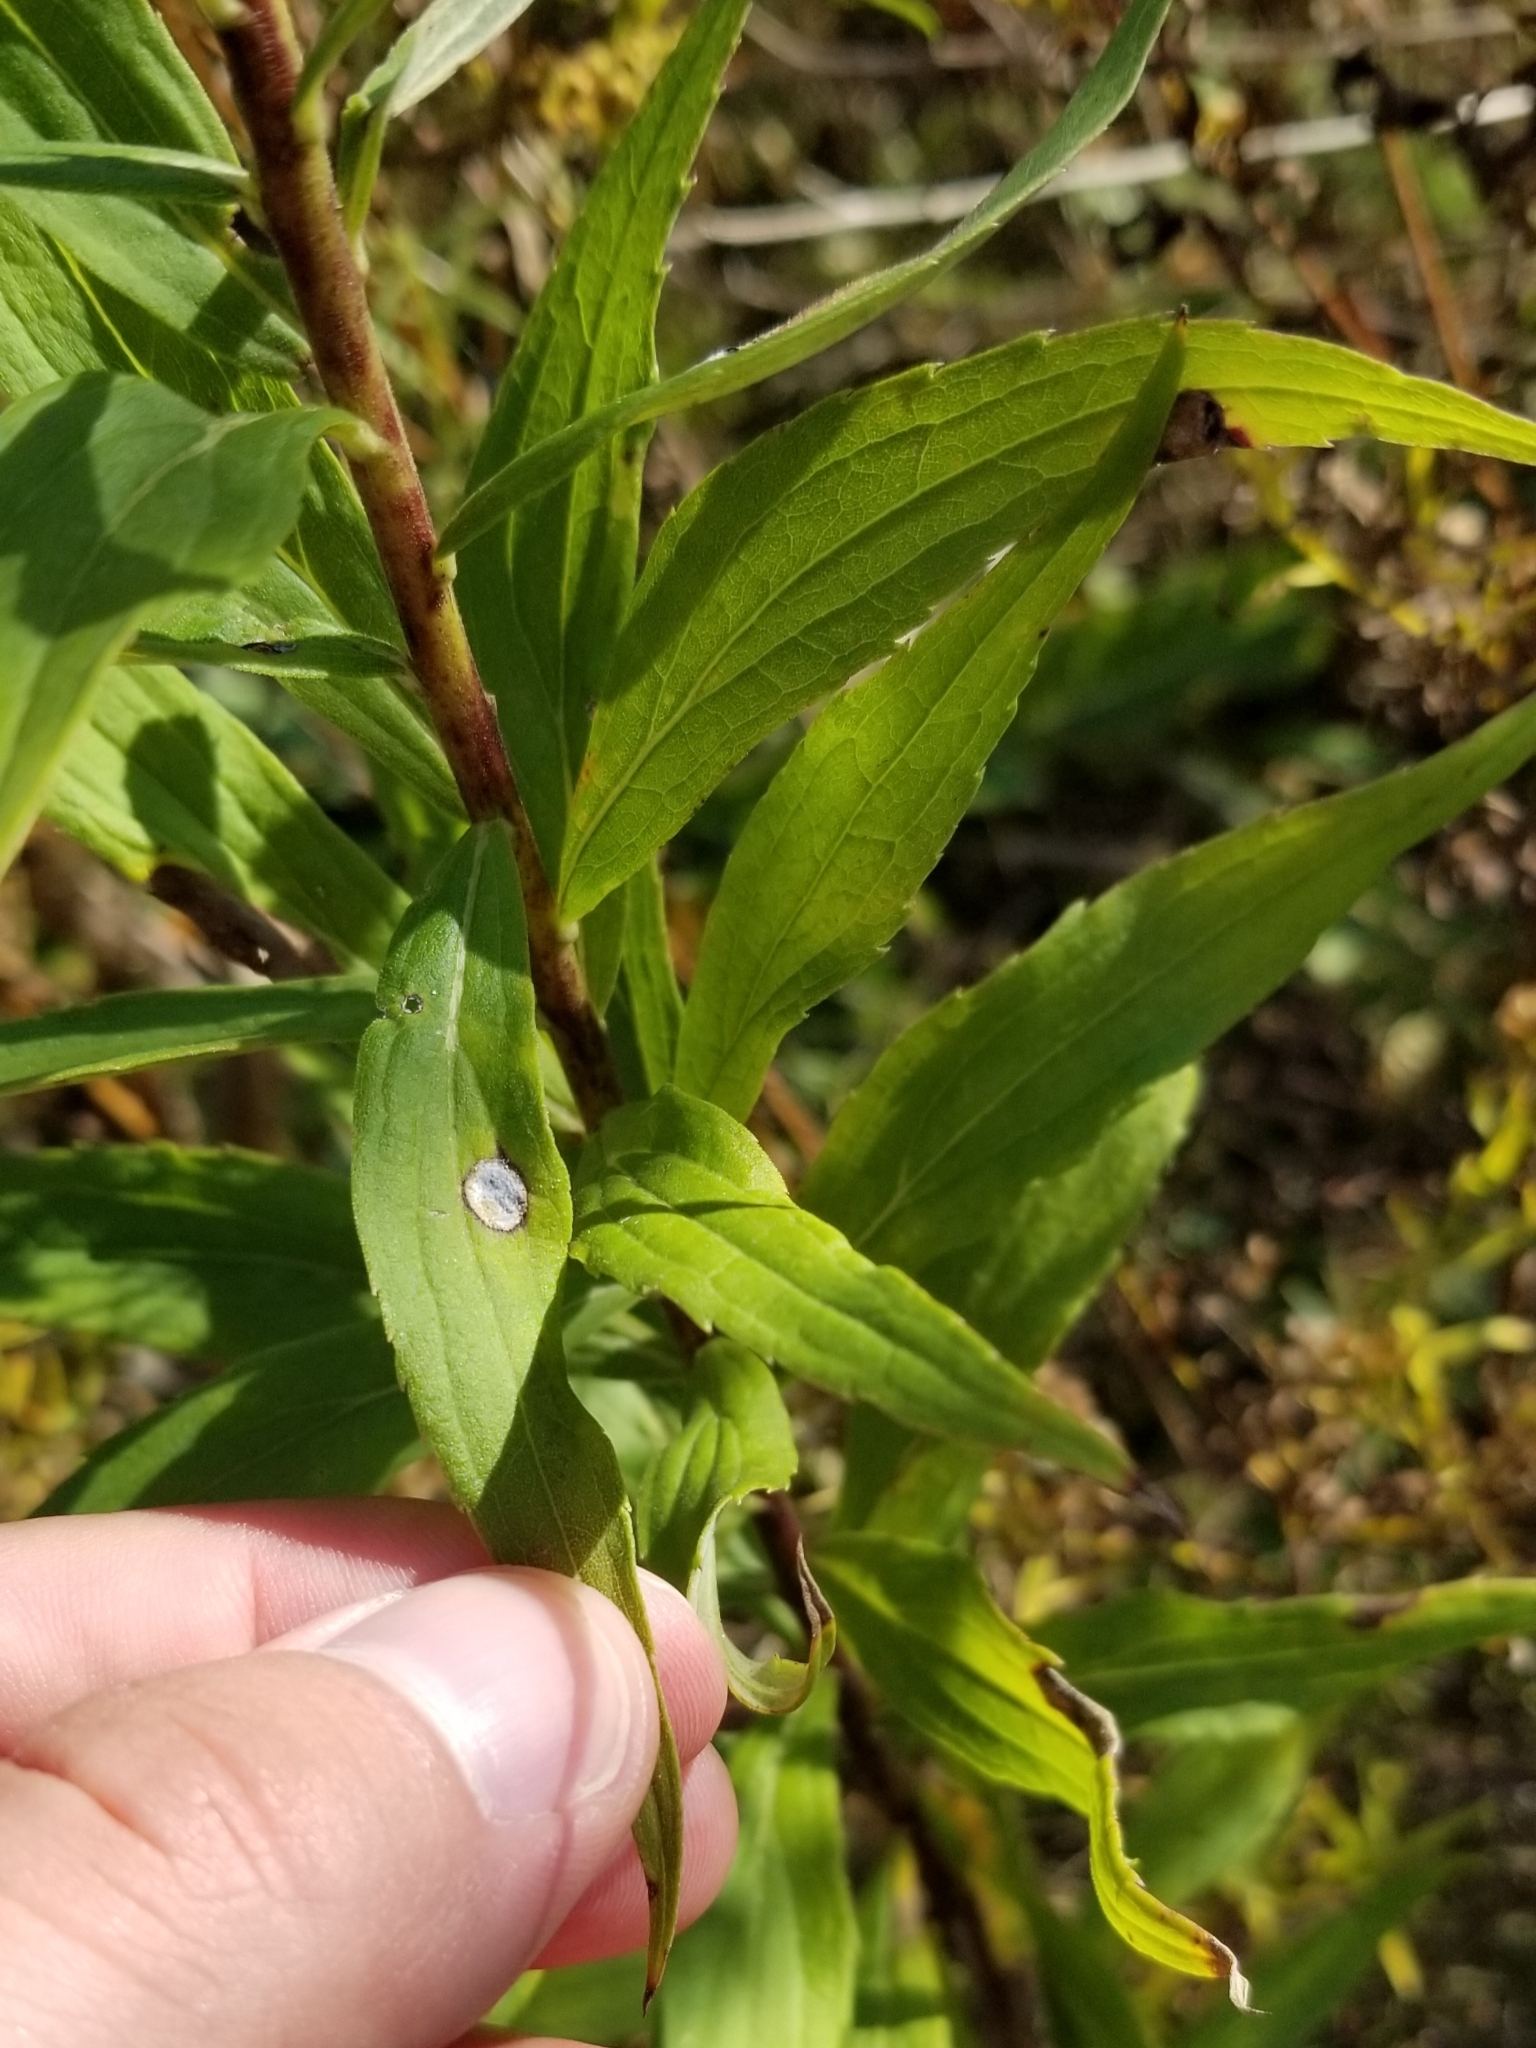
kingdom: Animalia
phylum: Arthropoda
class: Insecta
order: Diptera
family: Cecidomyiidae
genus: Asteromyia
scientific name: Asteromyia carbonifera
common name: Carbonifera goldenrod gall midge
